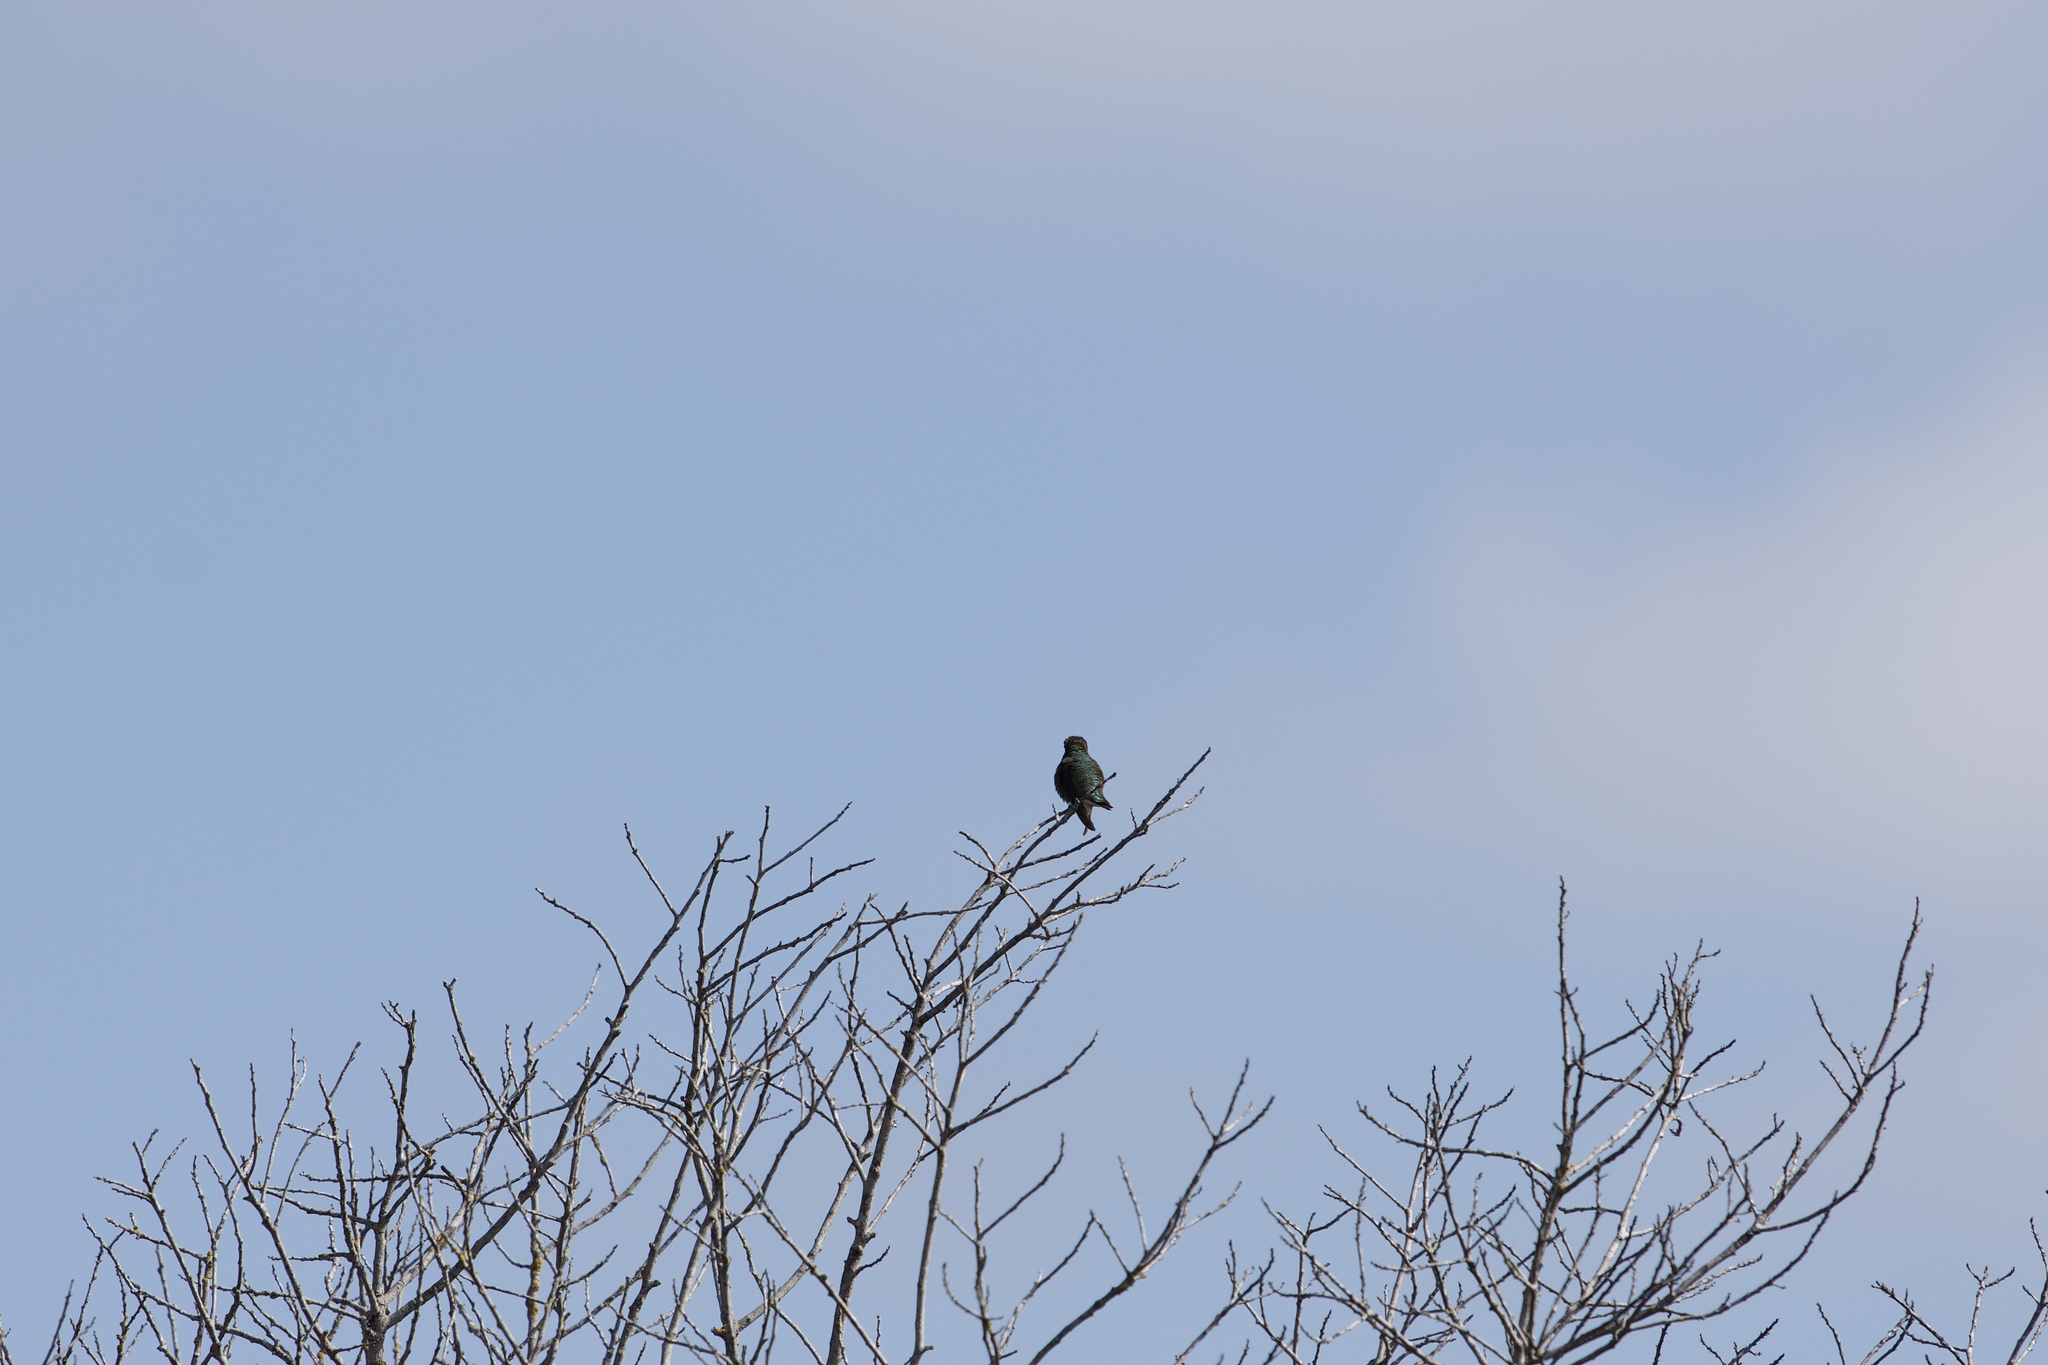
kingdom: Animalia
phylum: Chordata
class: Aves
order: Apodiformes
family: Trochilidae
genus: Calypte
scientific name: Calypte anna
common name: Anna's hummingbird
